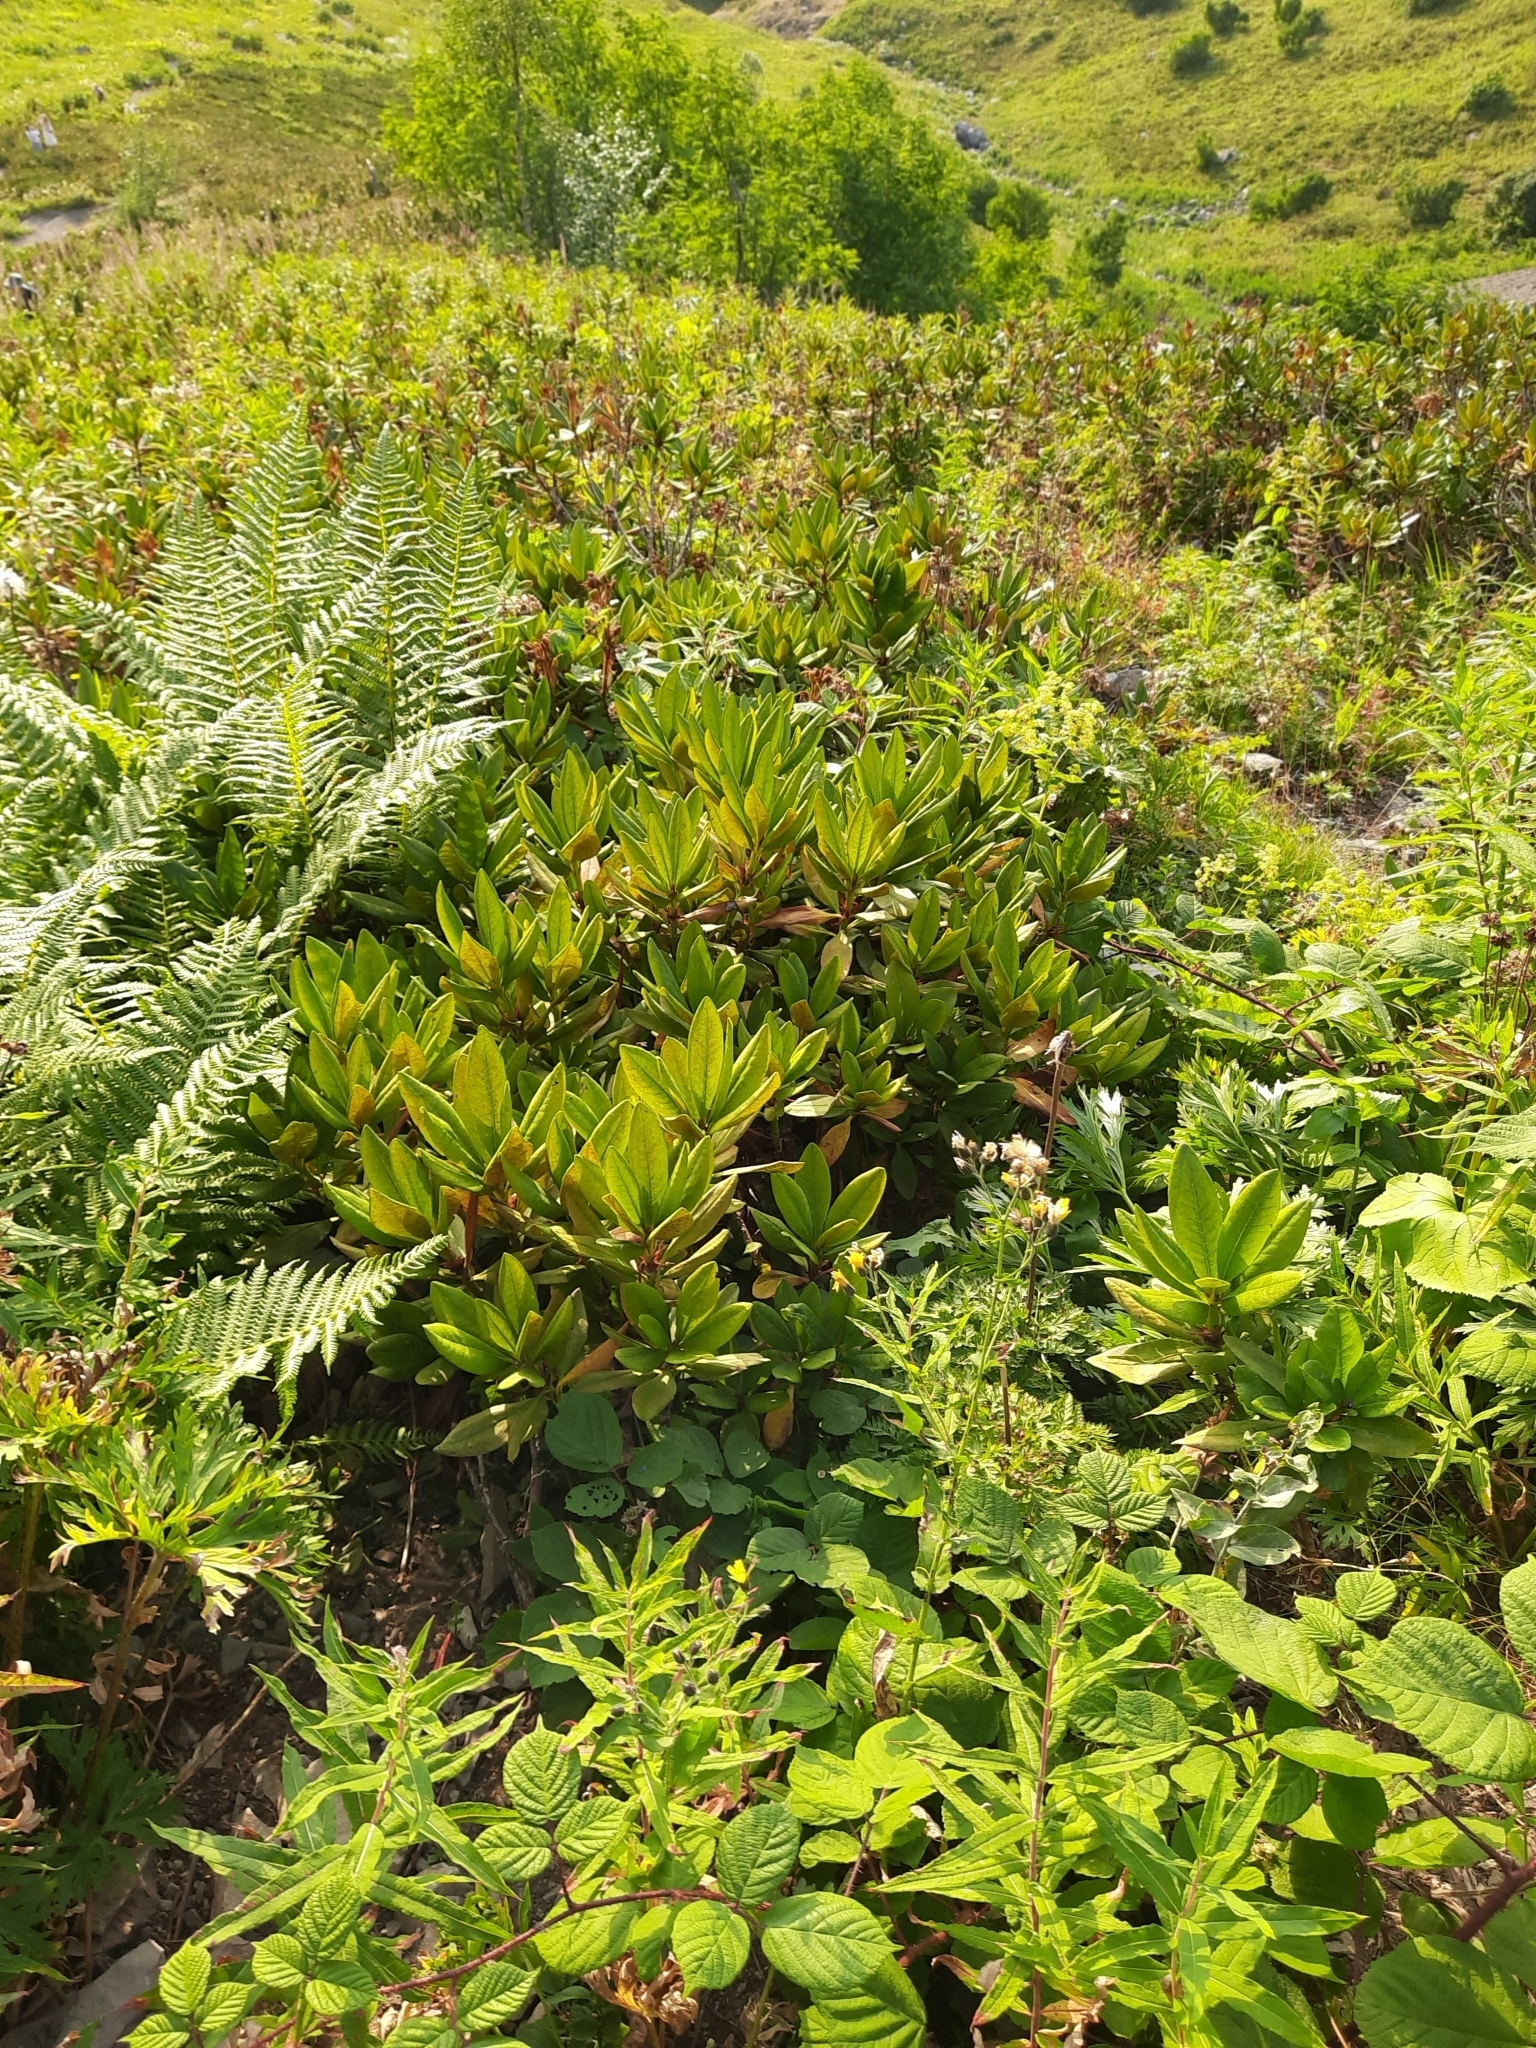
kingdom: Plantae
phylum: Tracheophyta
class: Magnoliopsida
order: Ericales
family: Ericaceae
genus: Rhododendron
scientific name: Rhododendron caucasicum
